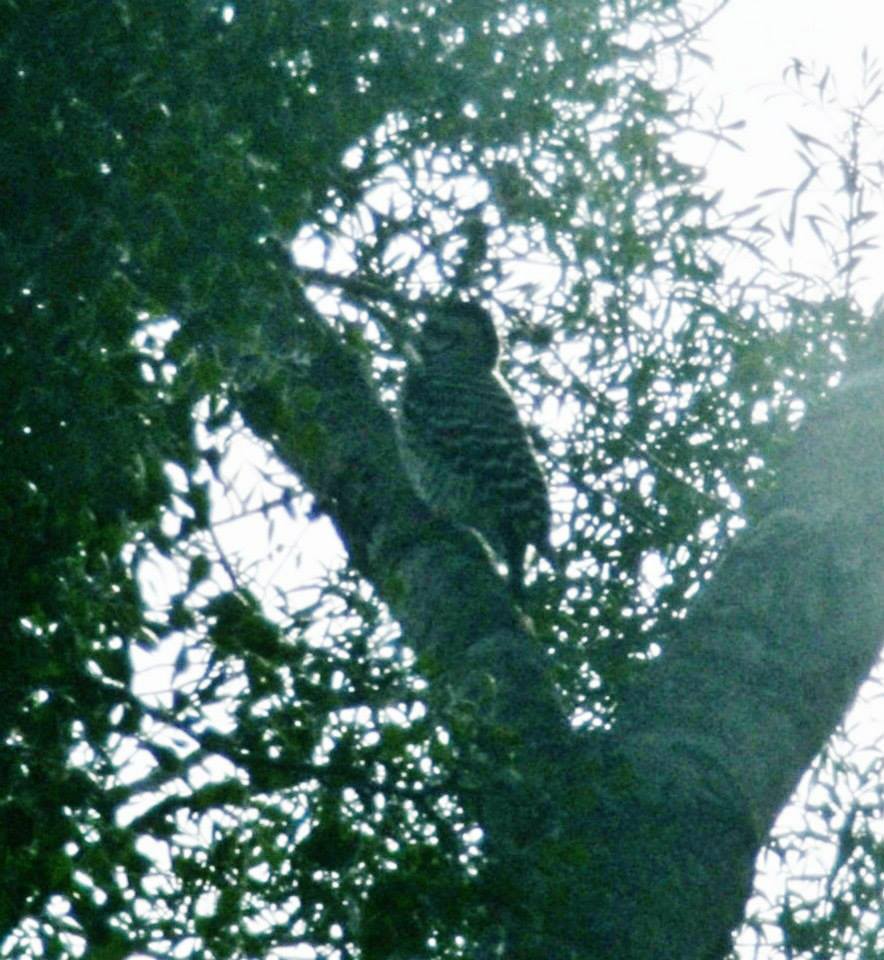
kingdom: Animalia
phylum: Chordata
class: Aves
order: Piciformes
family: Picidae
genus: Dryobates
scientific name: Dryobates scalaris
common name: Ladder-backed woodpecker
